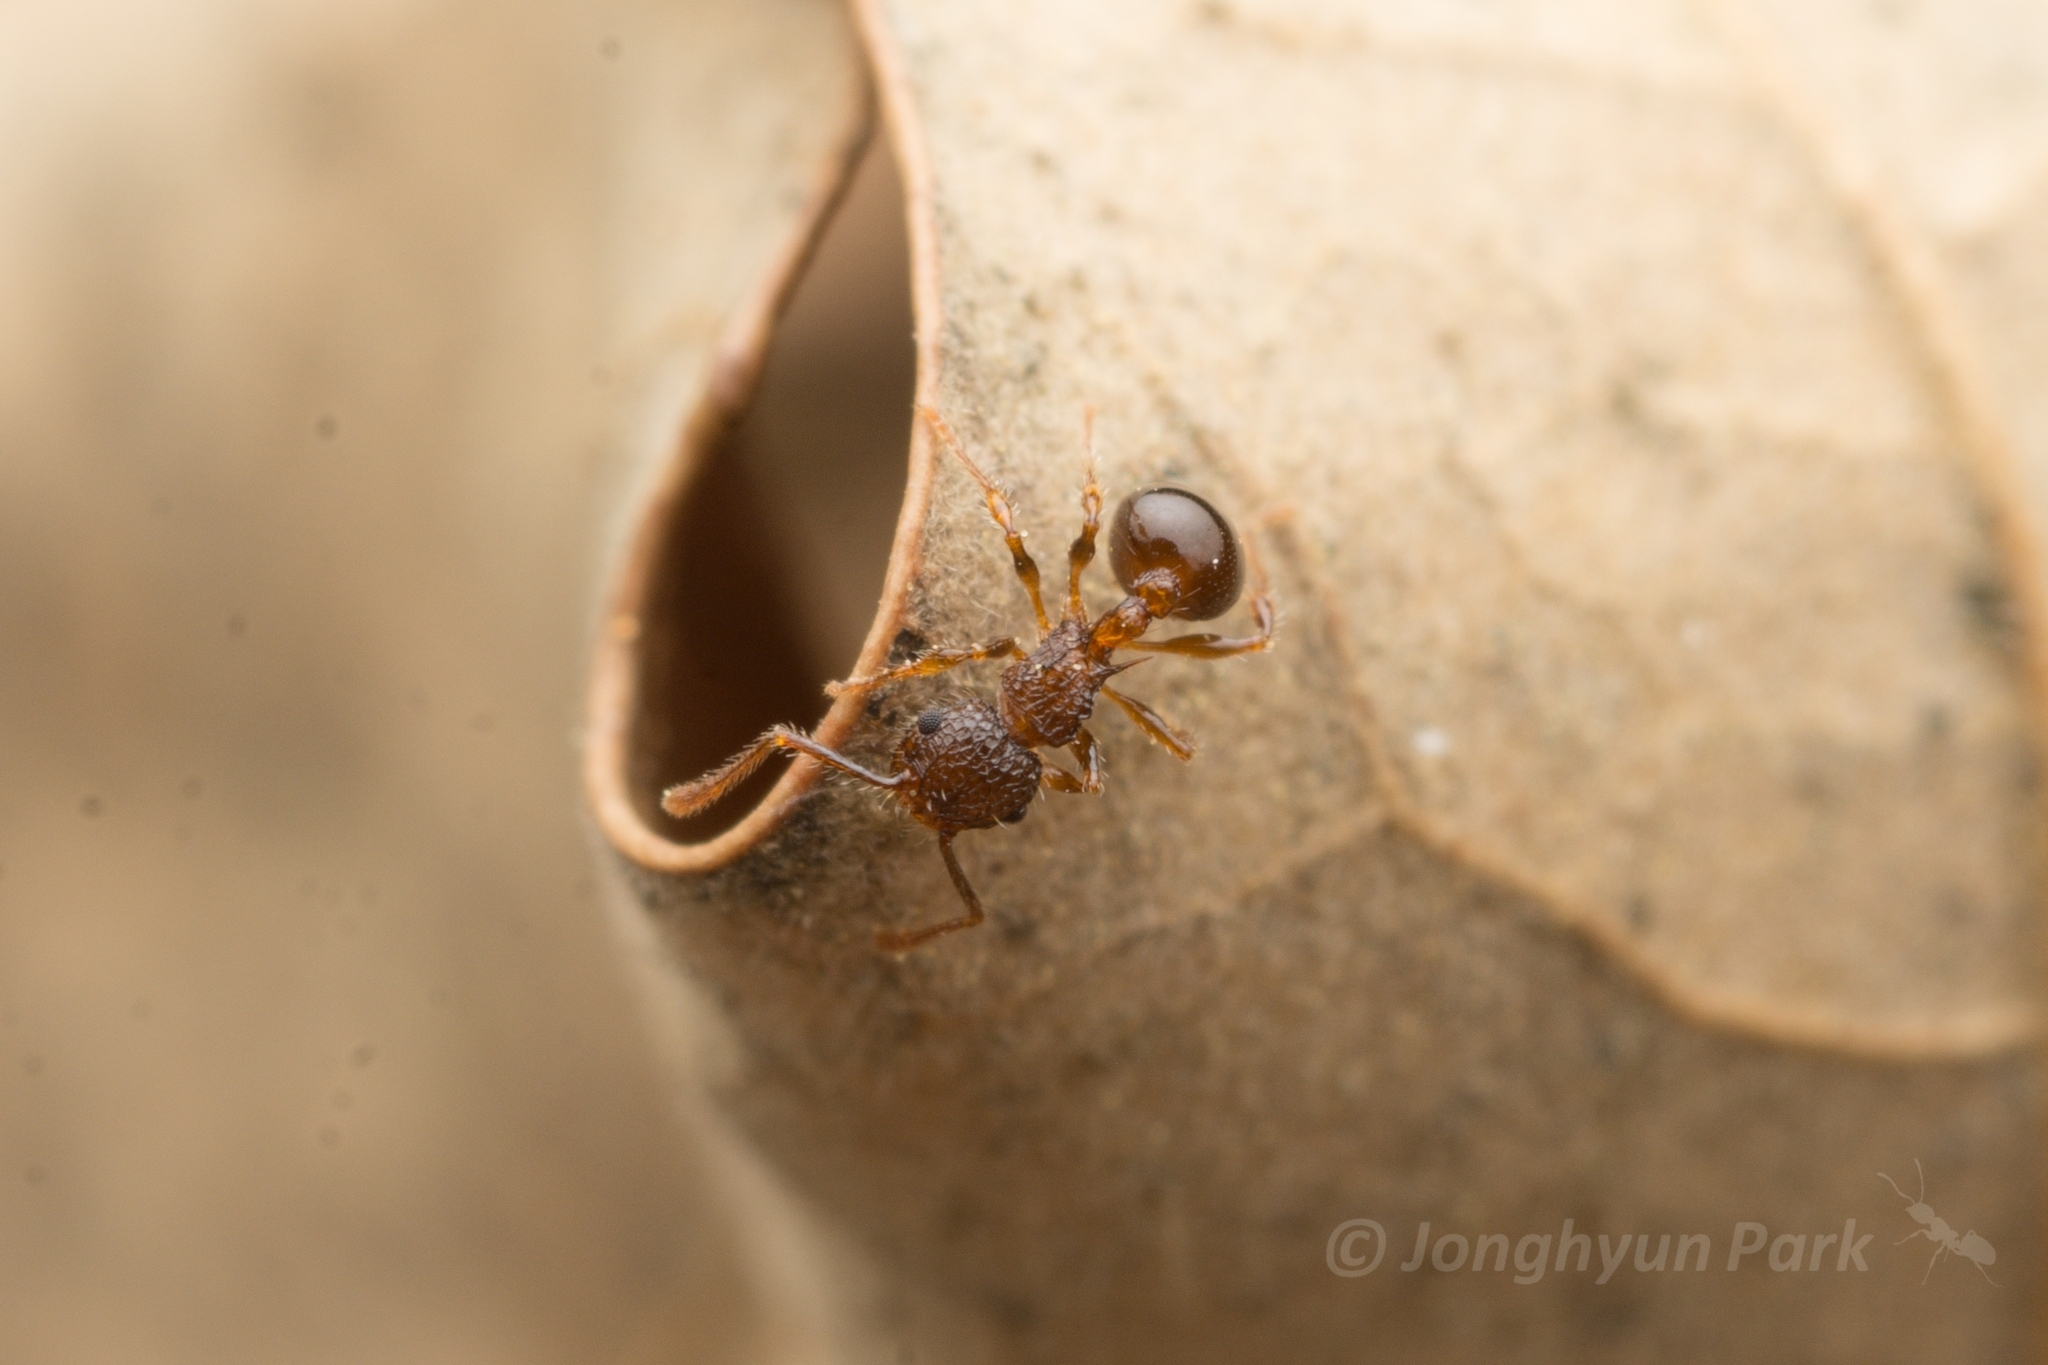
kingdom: Animalia
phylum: Arthropoda
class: Insecta
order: Hymenoptera
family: Formicidae
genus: Pristomyrmex
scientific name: Pristomyrmex punctatus
